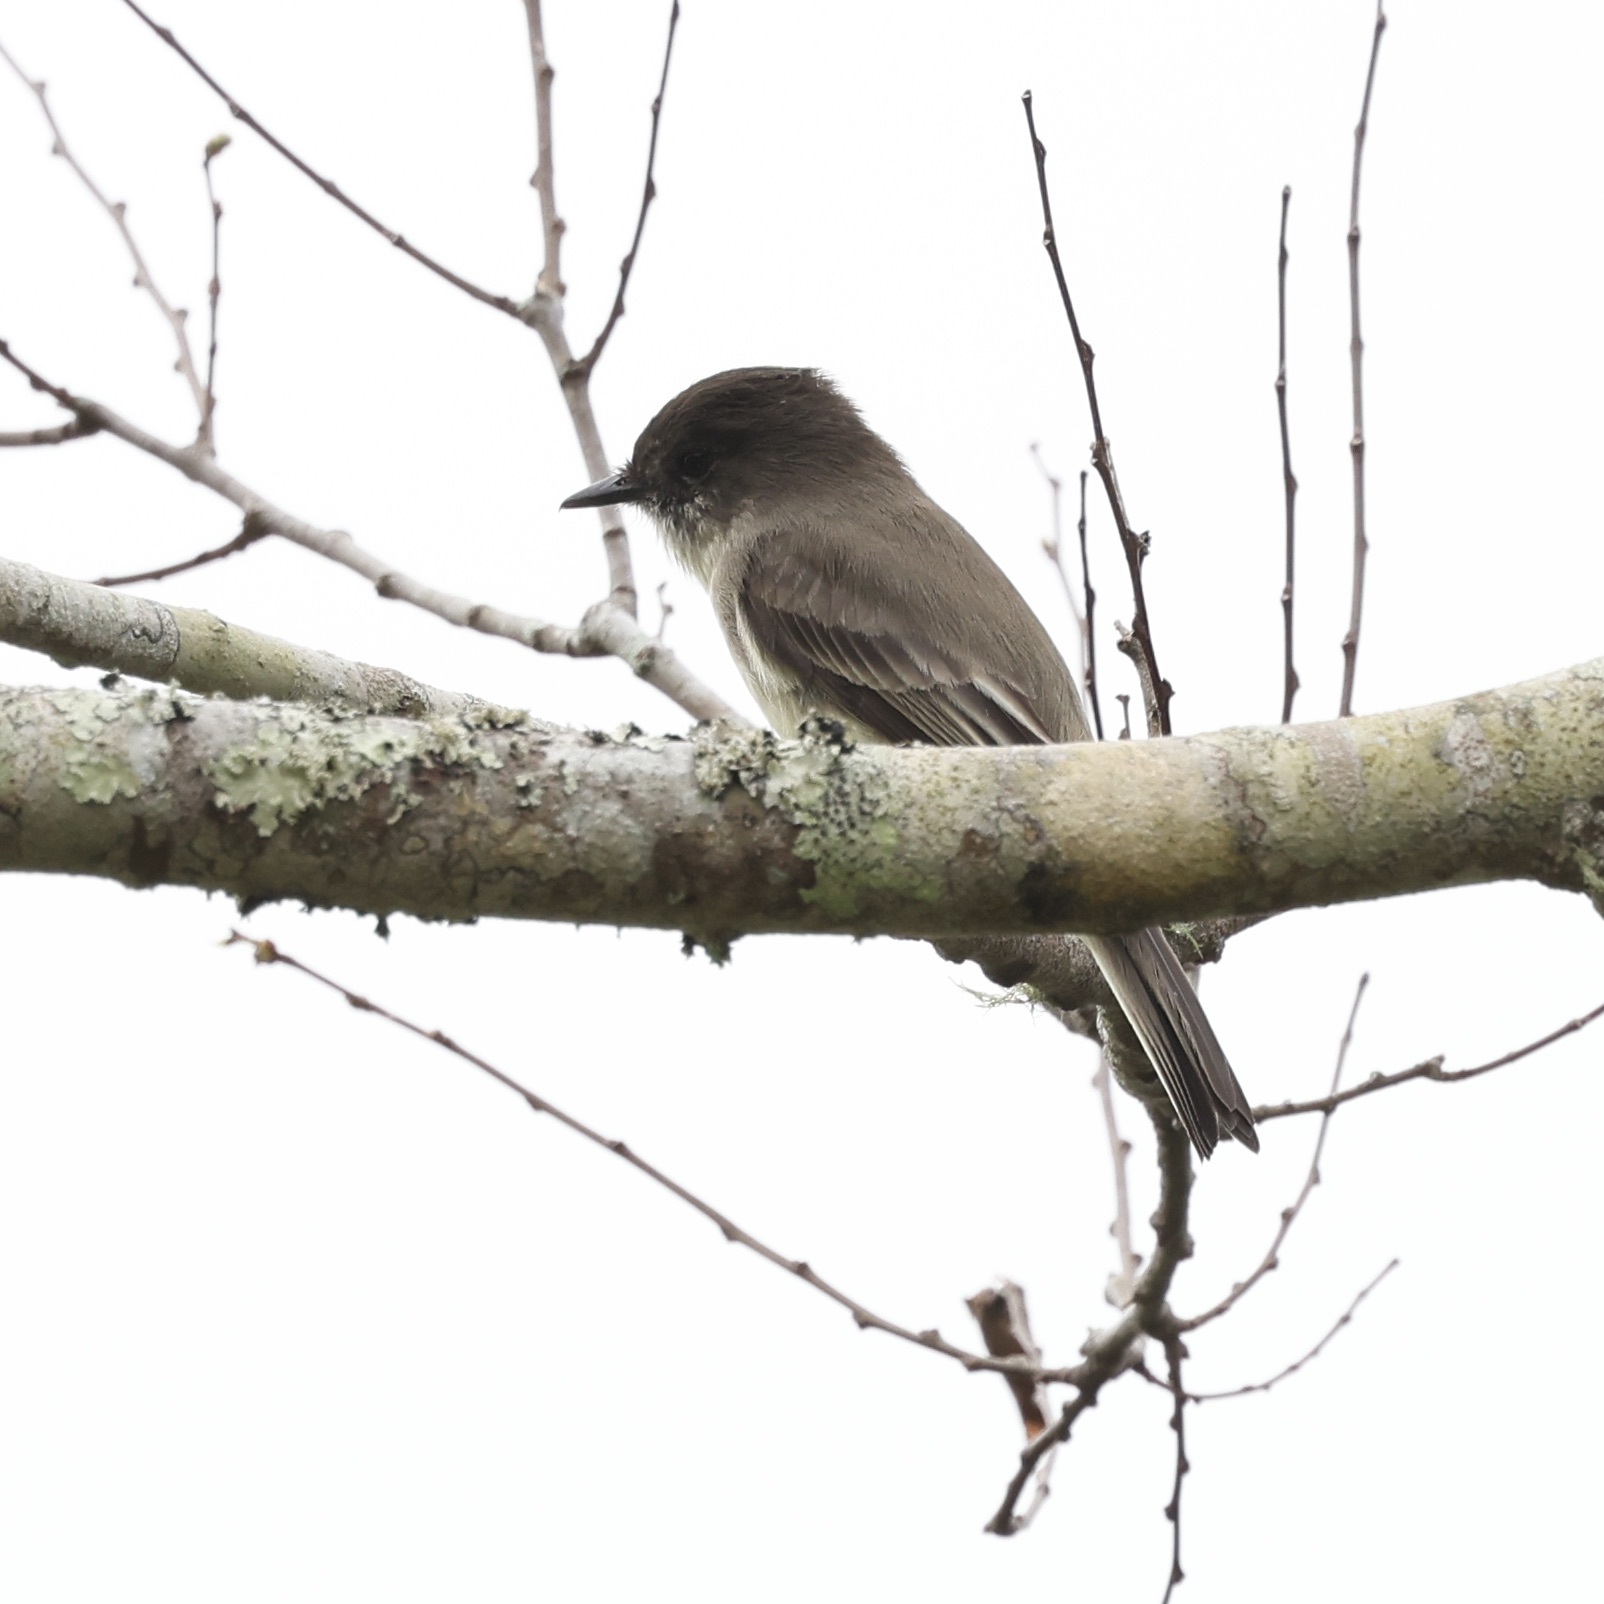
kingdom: Animalia
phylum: Chordata
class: Aves
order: Passeriformes
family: Tyrannidae
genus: Sayornis
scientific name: Sayornis phoebe
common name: Eastern phoebe
